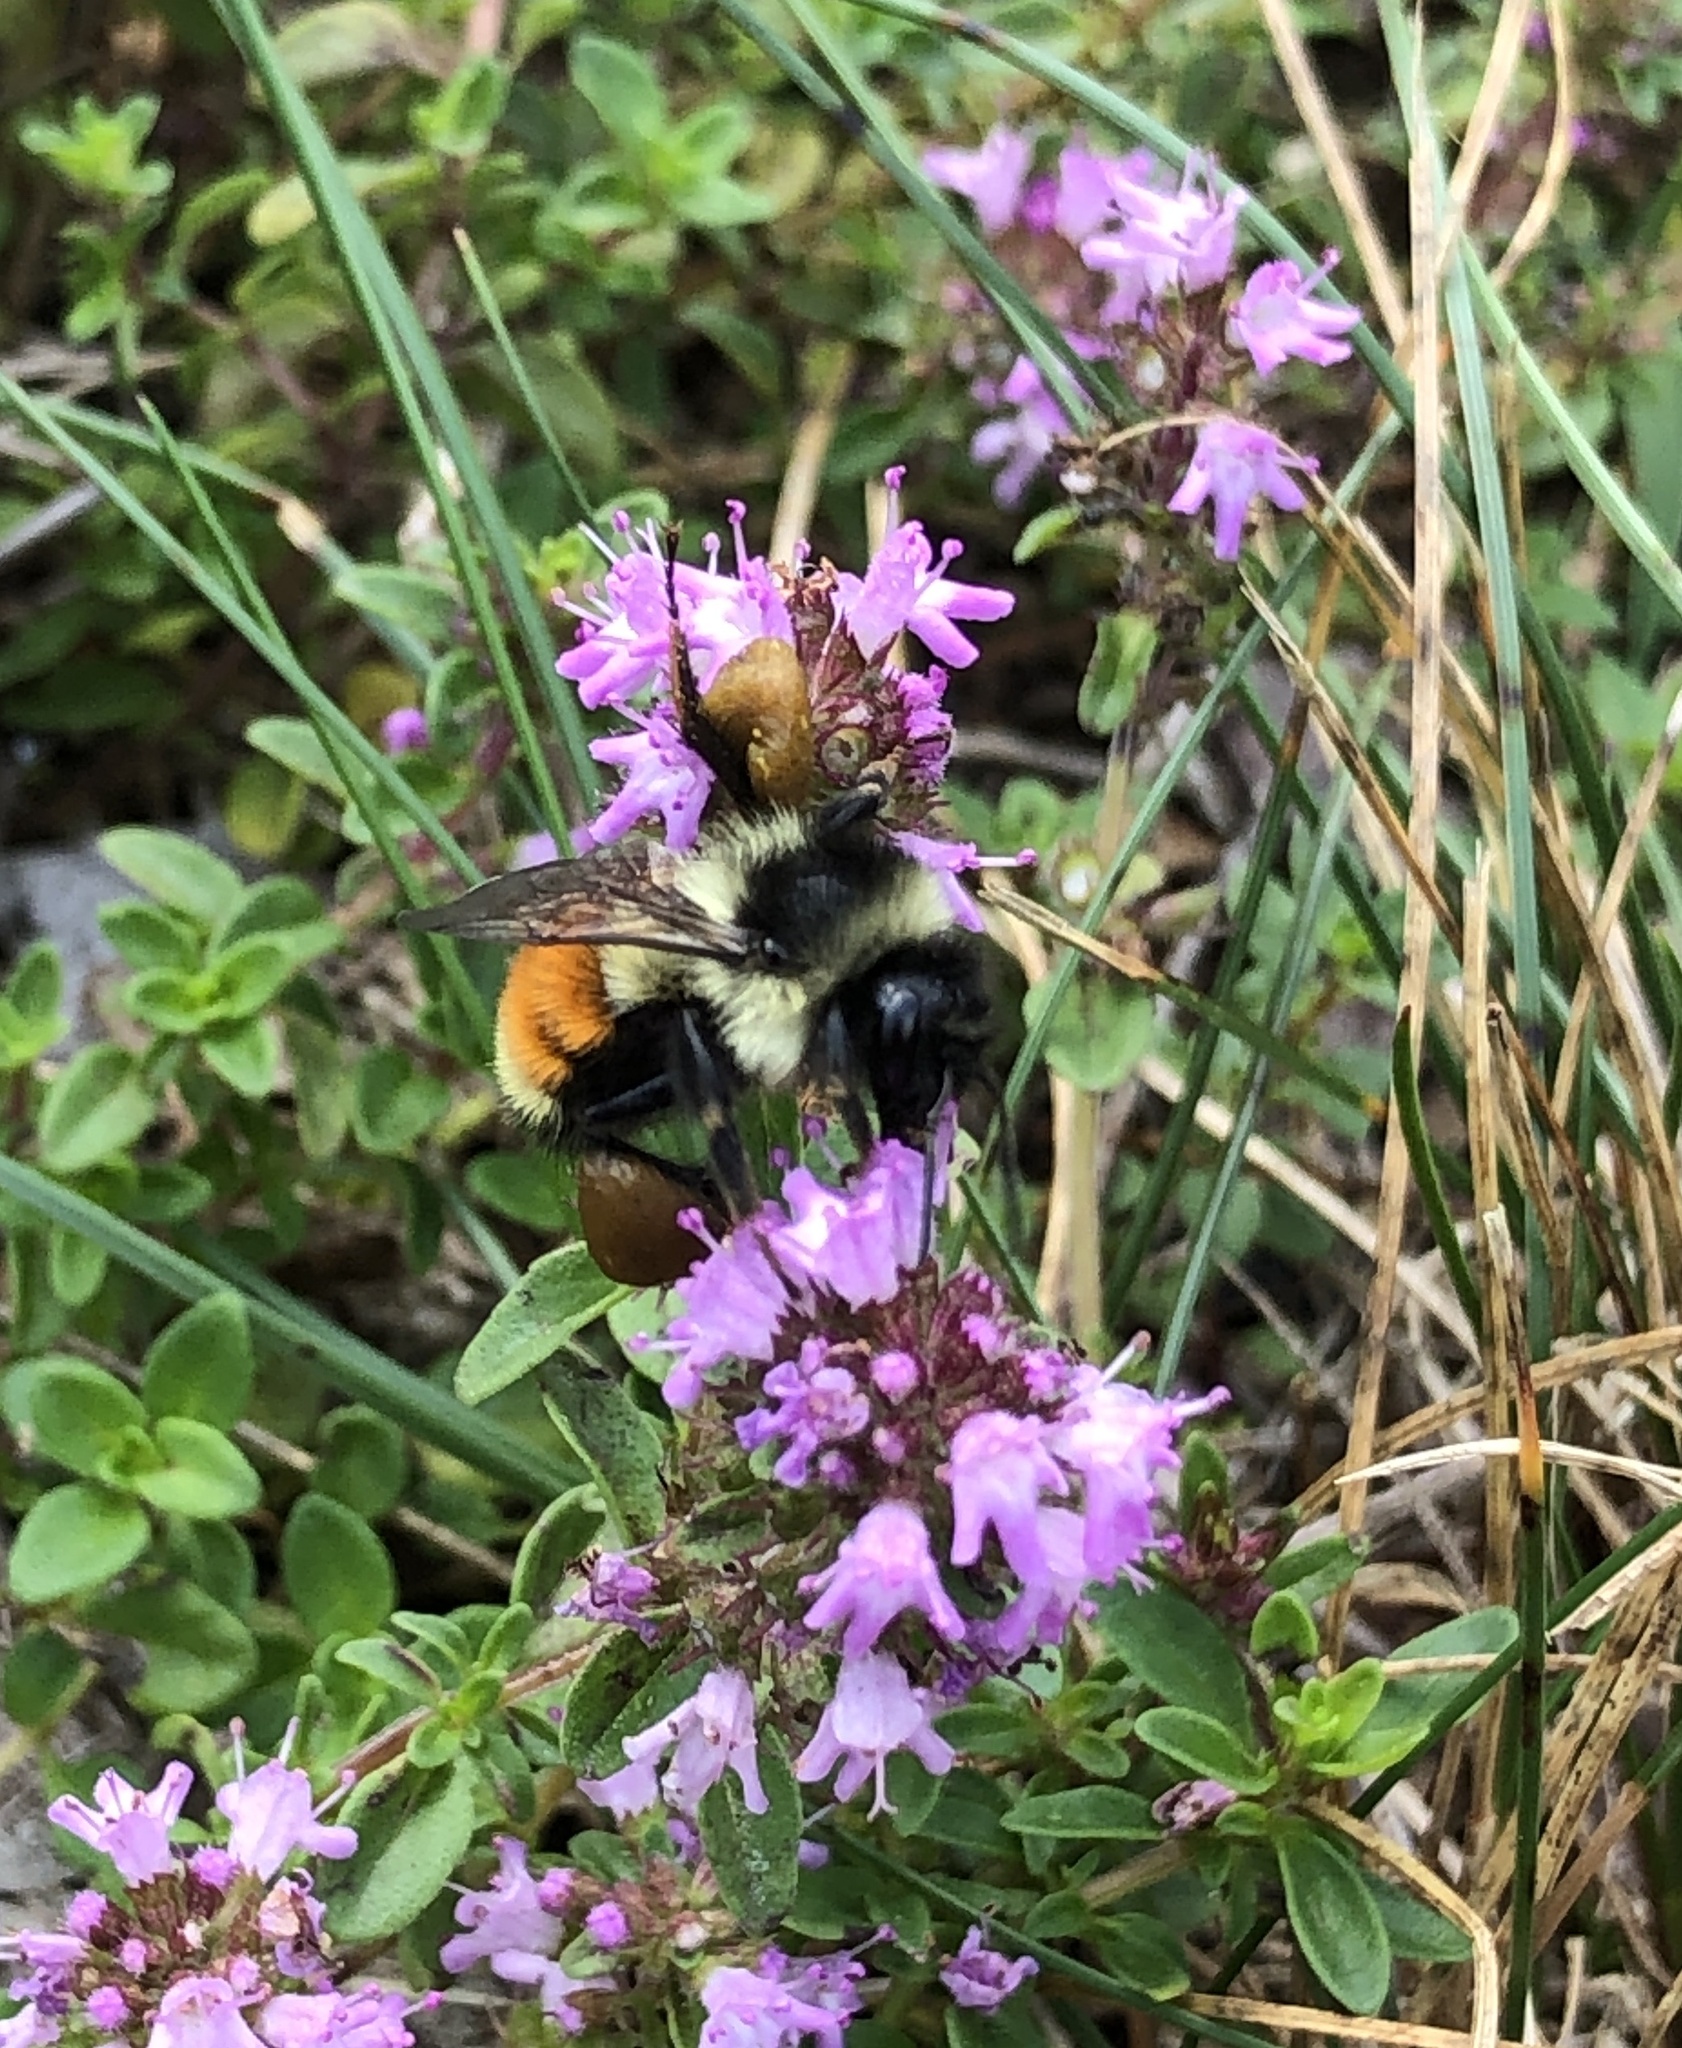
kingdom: Animalia
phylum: Arthropoda
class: Insecta
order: Hymenoptera
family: Apidae
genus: Bombus
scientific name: Bombus ternarius
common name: Tri-colored bumble bee
